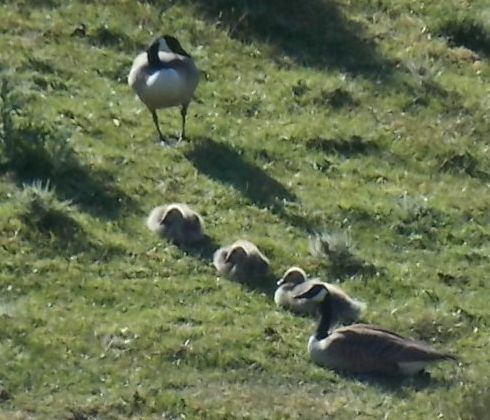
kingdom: Animalia
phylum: Chordata
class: Aves
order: Anseriformes
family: Anatidae
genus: Branta
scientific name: Branta canadensis
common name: Canada goose
